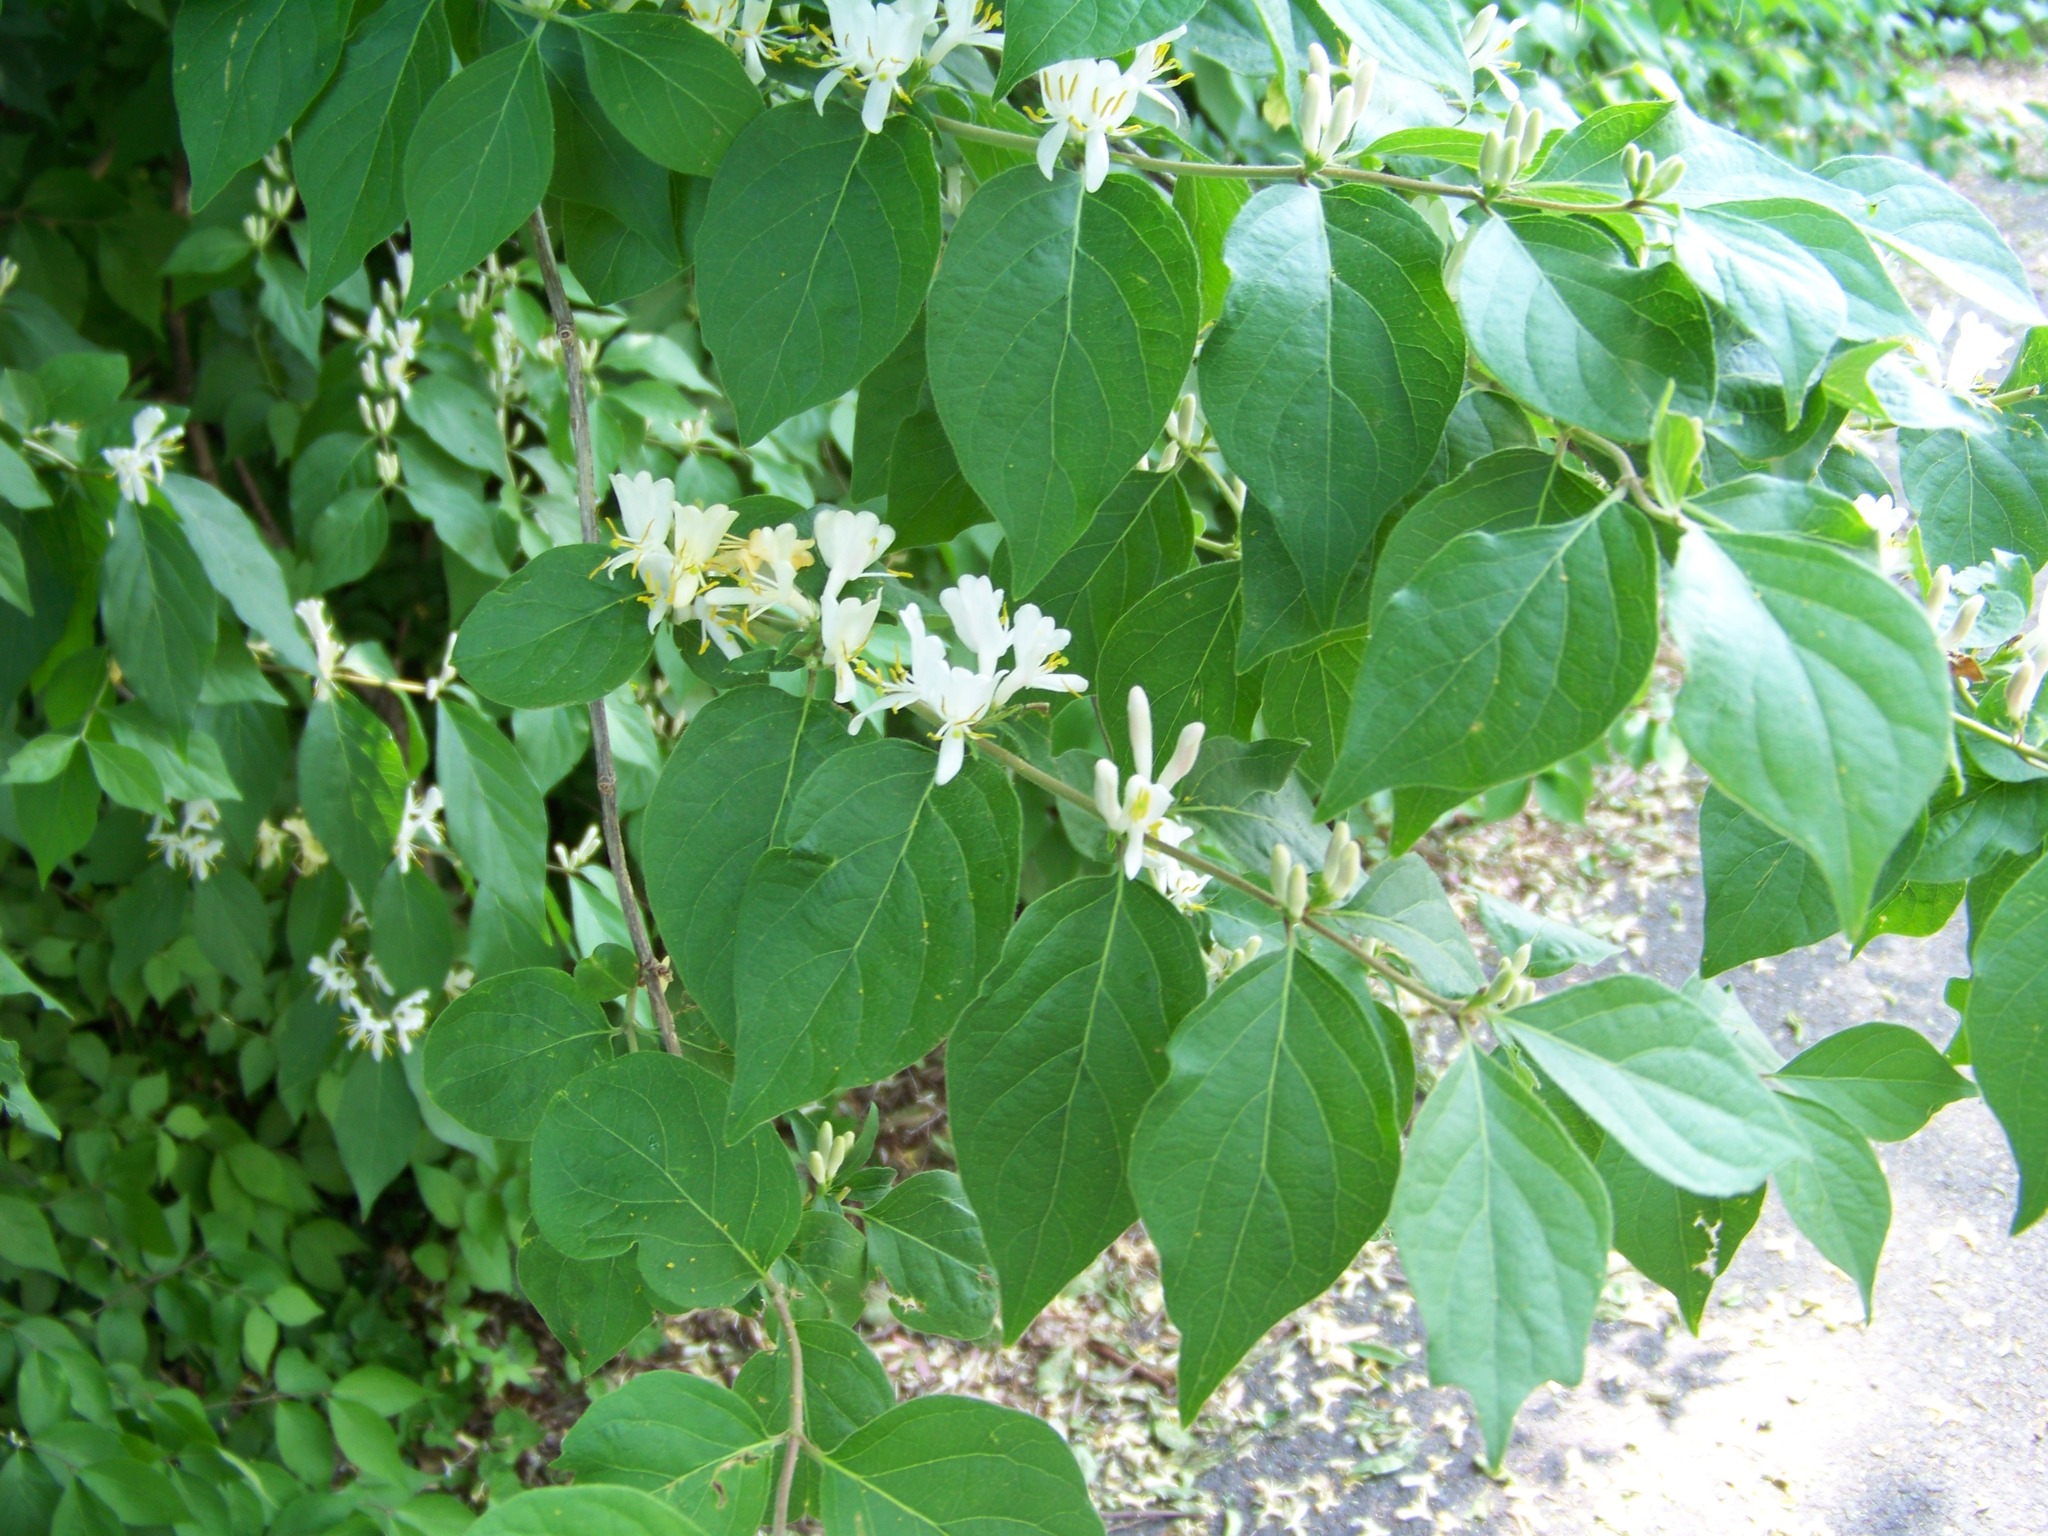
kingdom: Plantae
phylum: Tracheophyta
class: Magnoliopsida
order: Dipsacales
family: Caprifoliaceae
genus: Lonicera
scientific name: Lonicera maackii
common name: Amur honeysuckle
